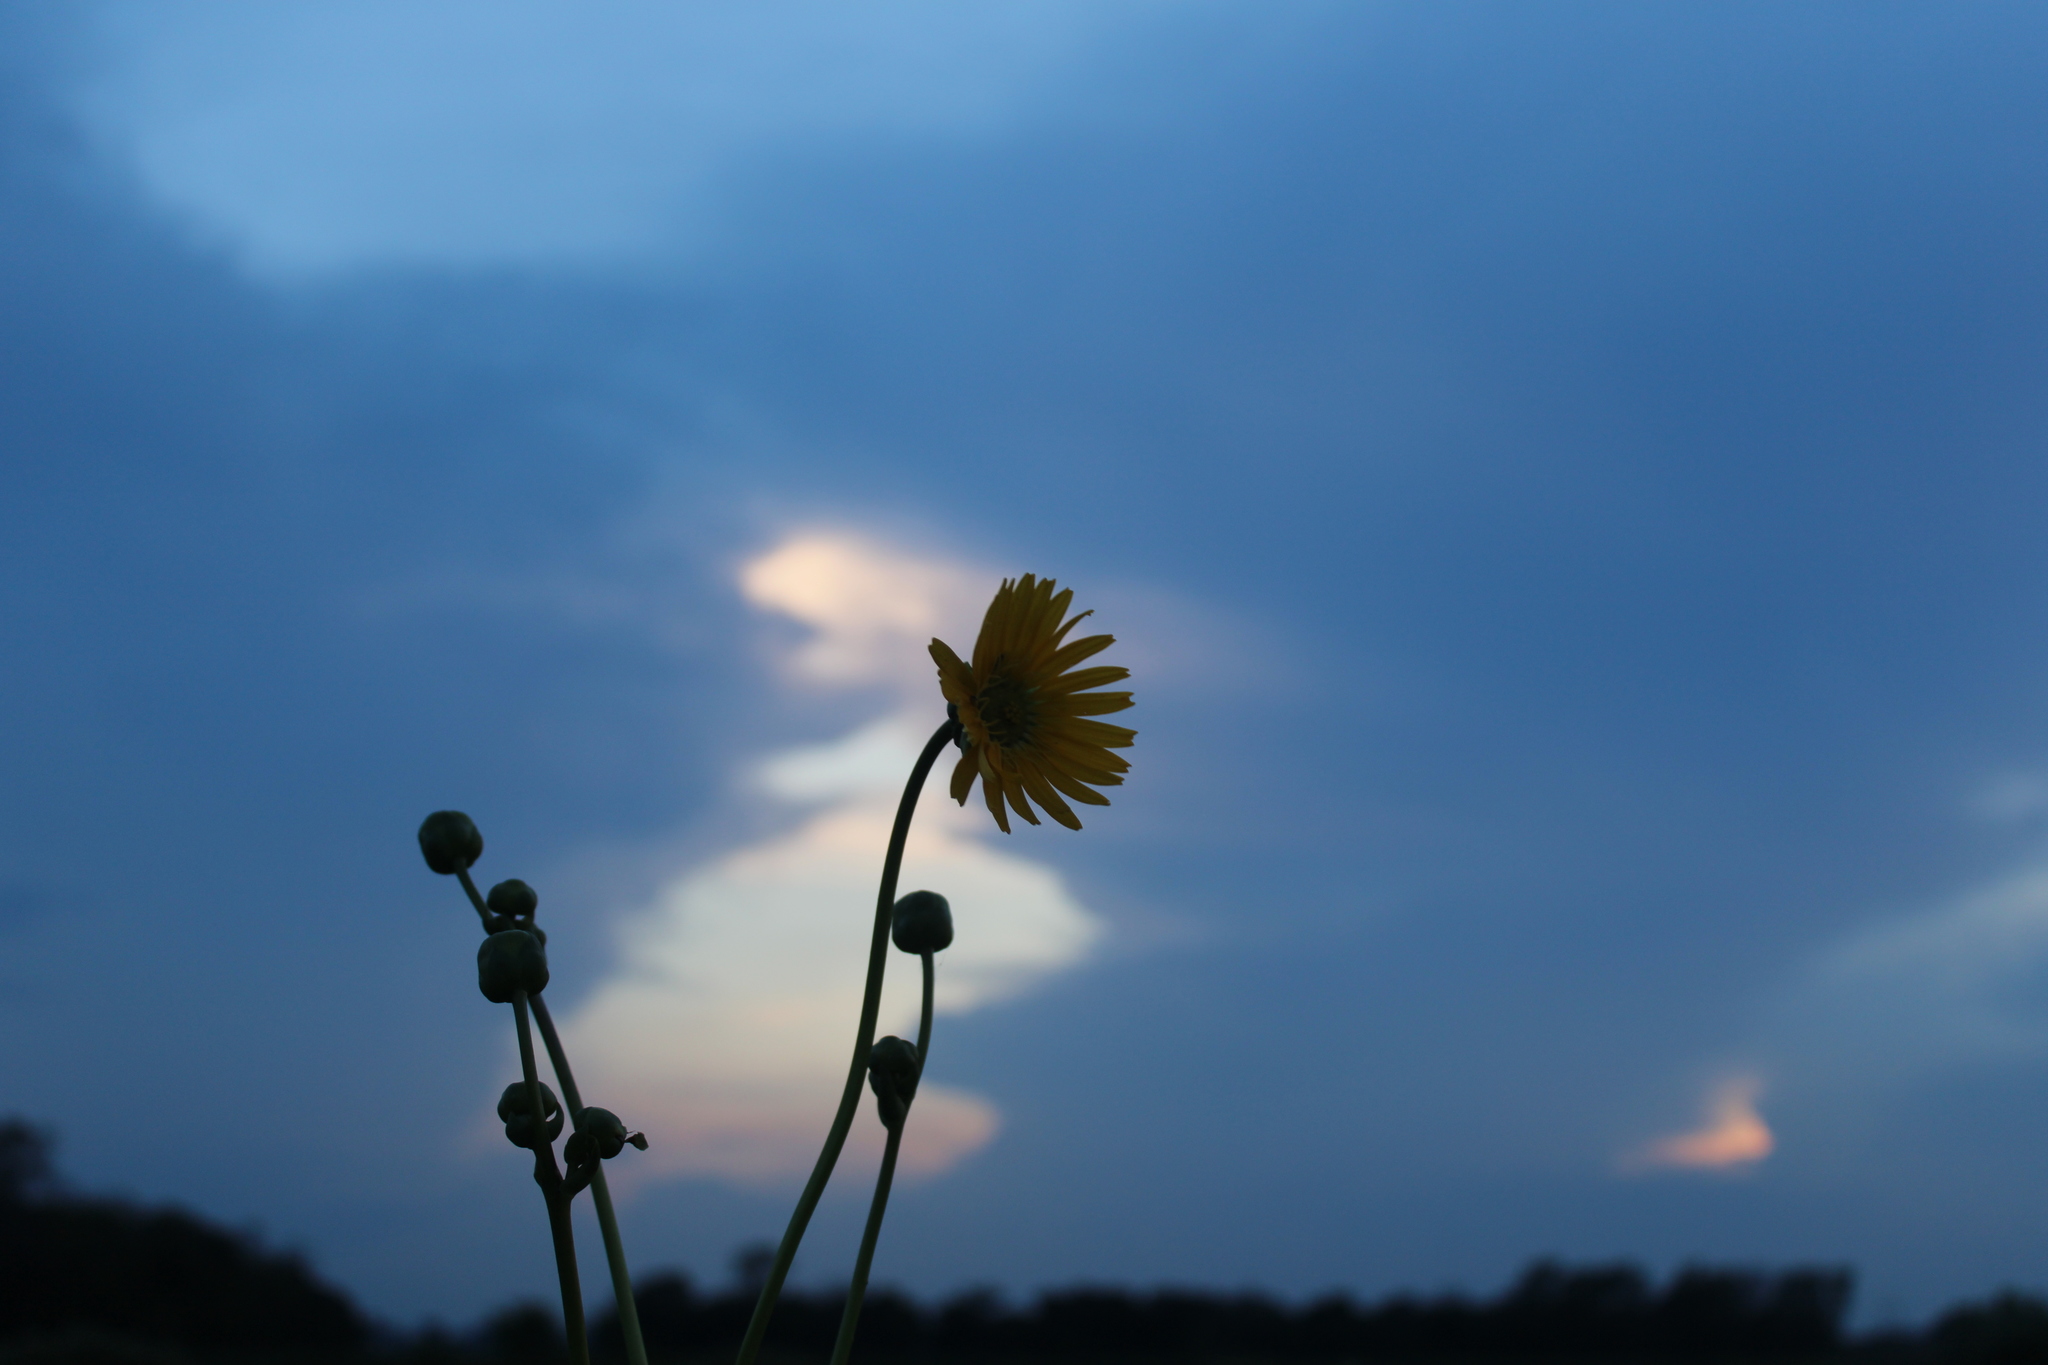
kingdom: Plantae
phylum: Tracheophyta
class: Magnoliopsida
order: Asterales
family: Asteraceae
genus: Silphium
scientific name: Silphium terebinthinaceum
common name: Basal-leaf rosinweed
